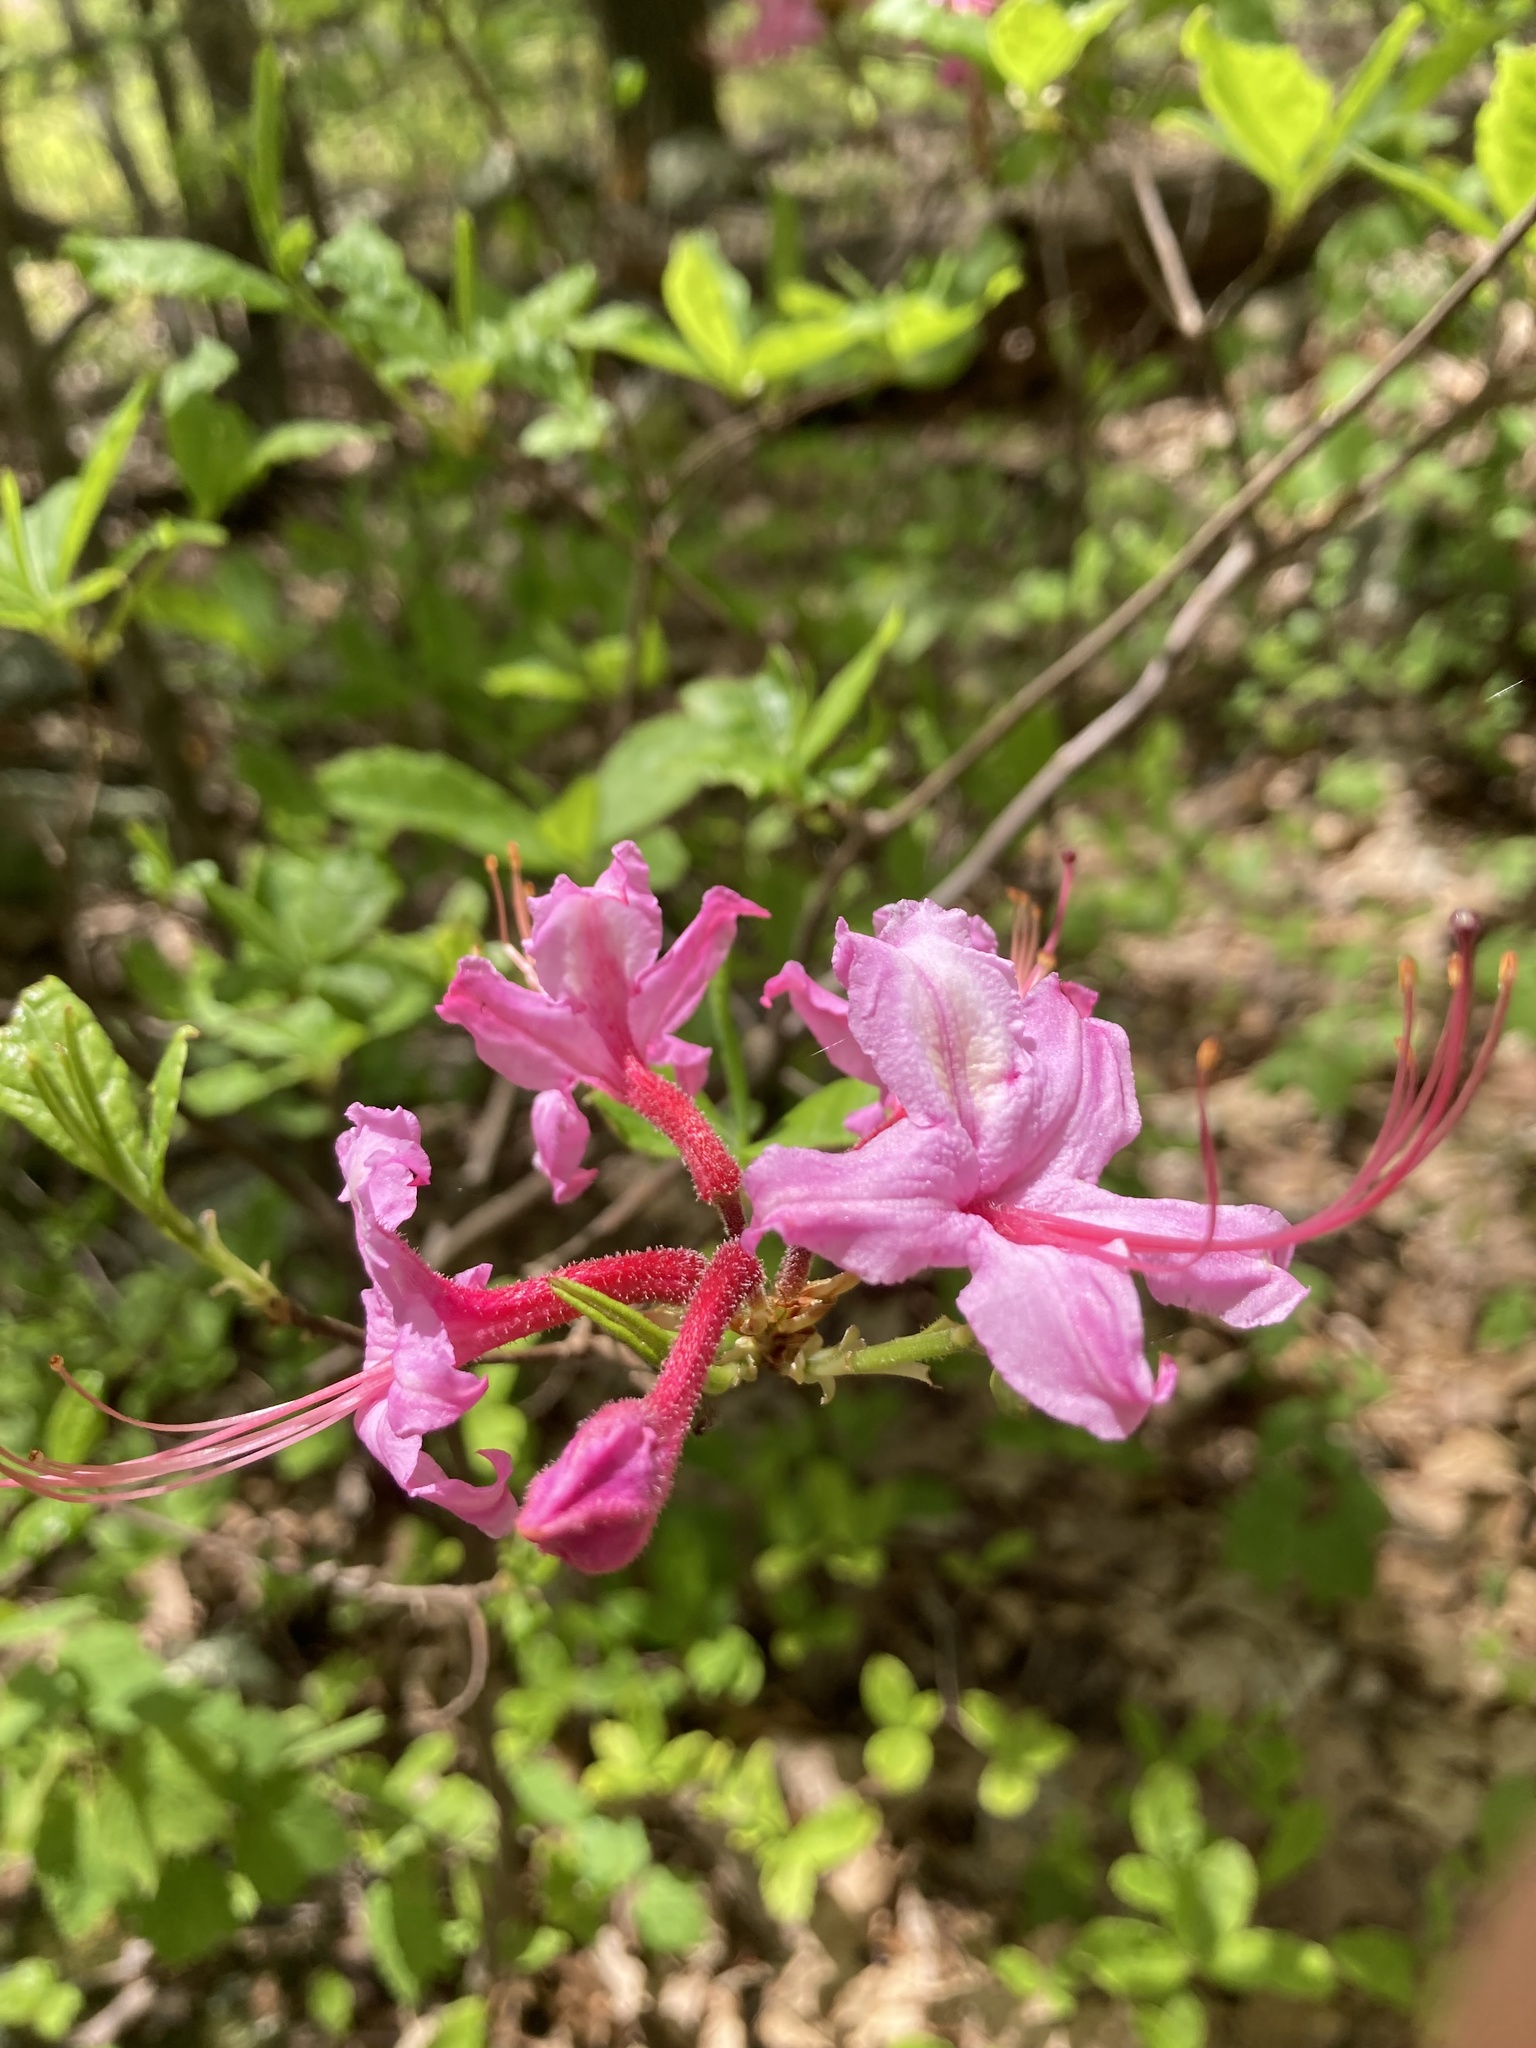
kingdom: Plantae
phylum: Tracheophyta
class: Magnoliopsida
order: Ericales
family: Ericaceae
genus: Rhododendron
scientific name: Rhododendron roseum
